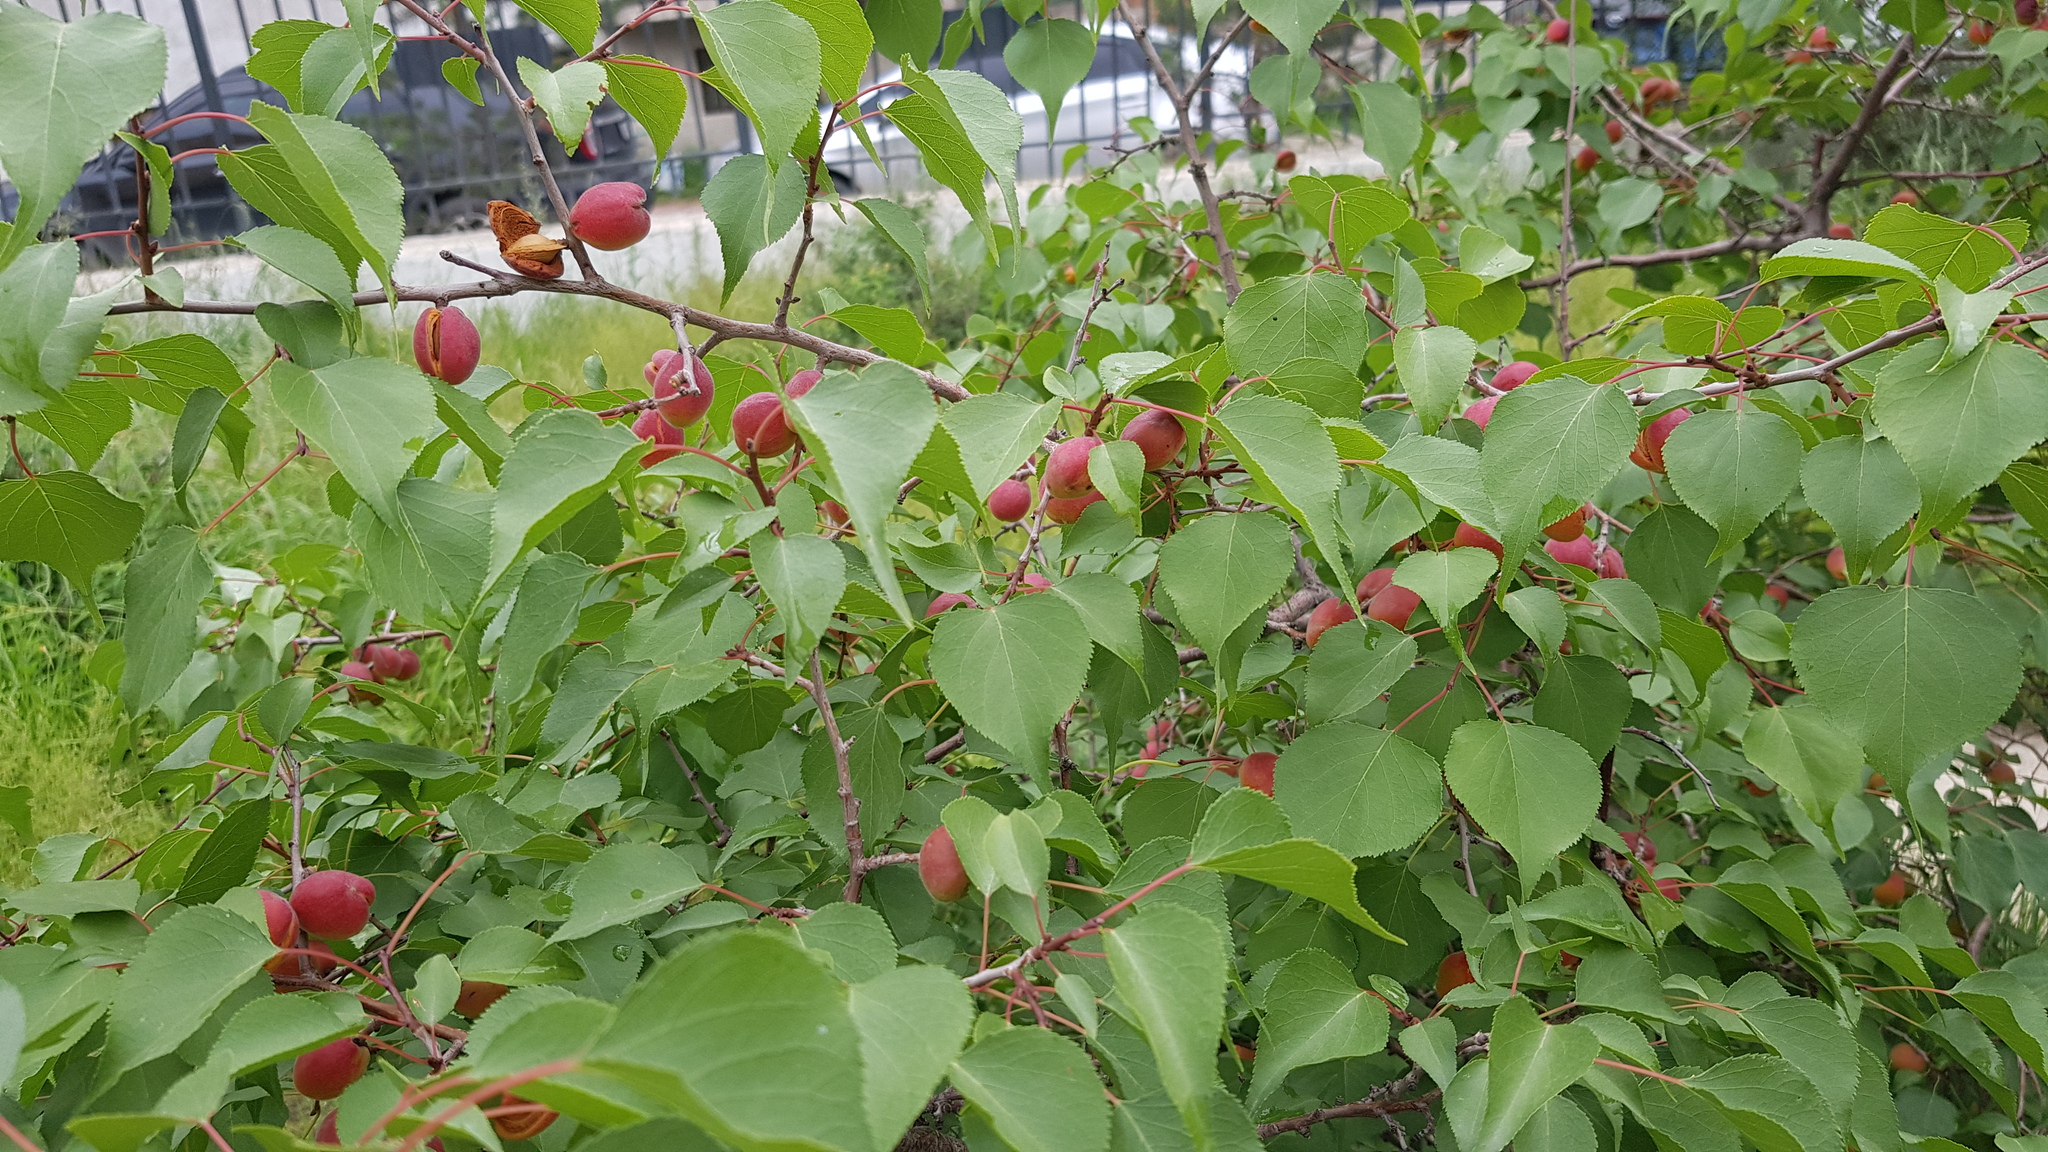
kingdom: Plantae
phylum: Tracheophyta
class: Magnoliopsida
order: Rosales
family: Rosaceae
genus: Prunus
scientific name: Prunus sibirica
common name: Siberian apricot
